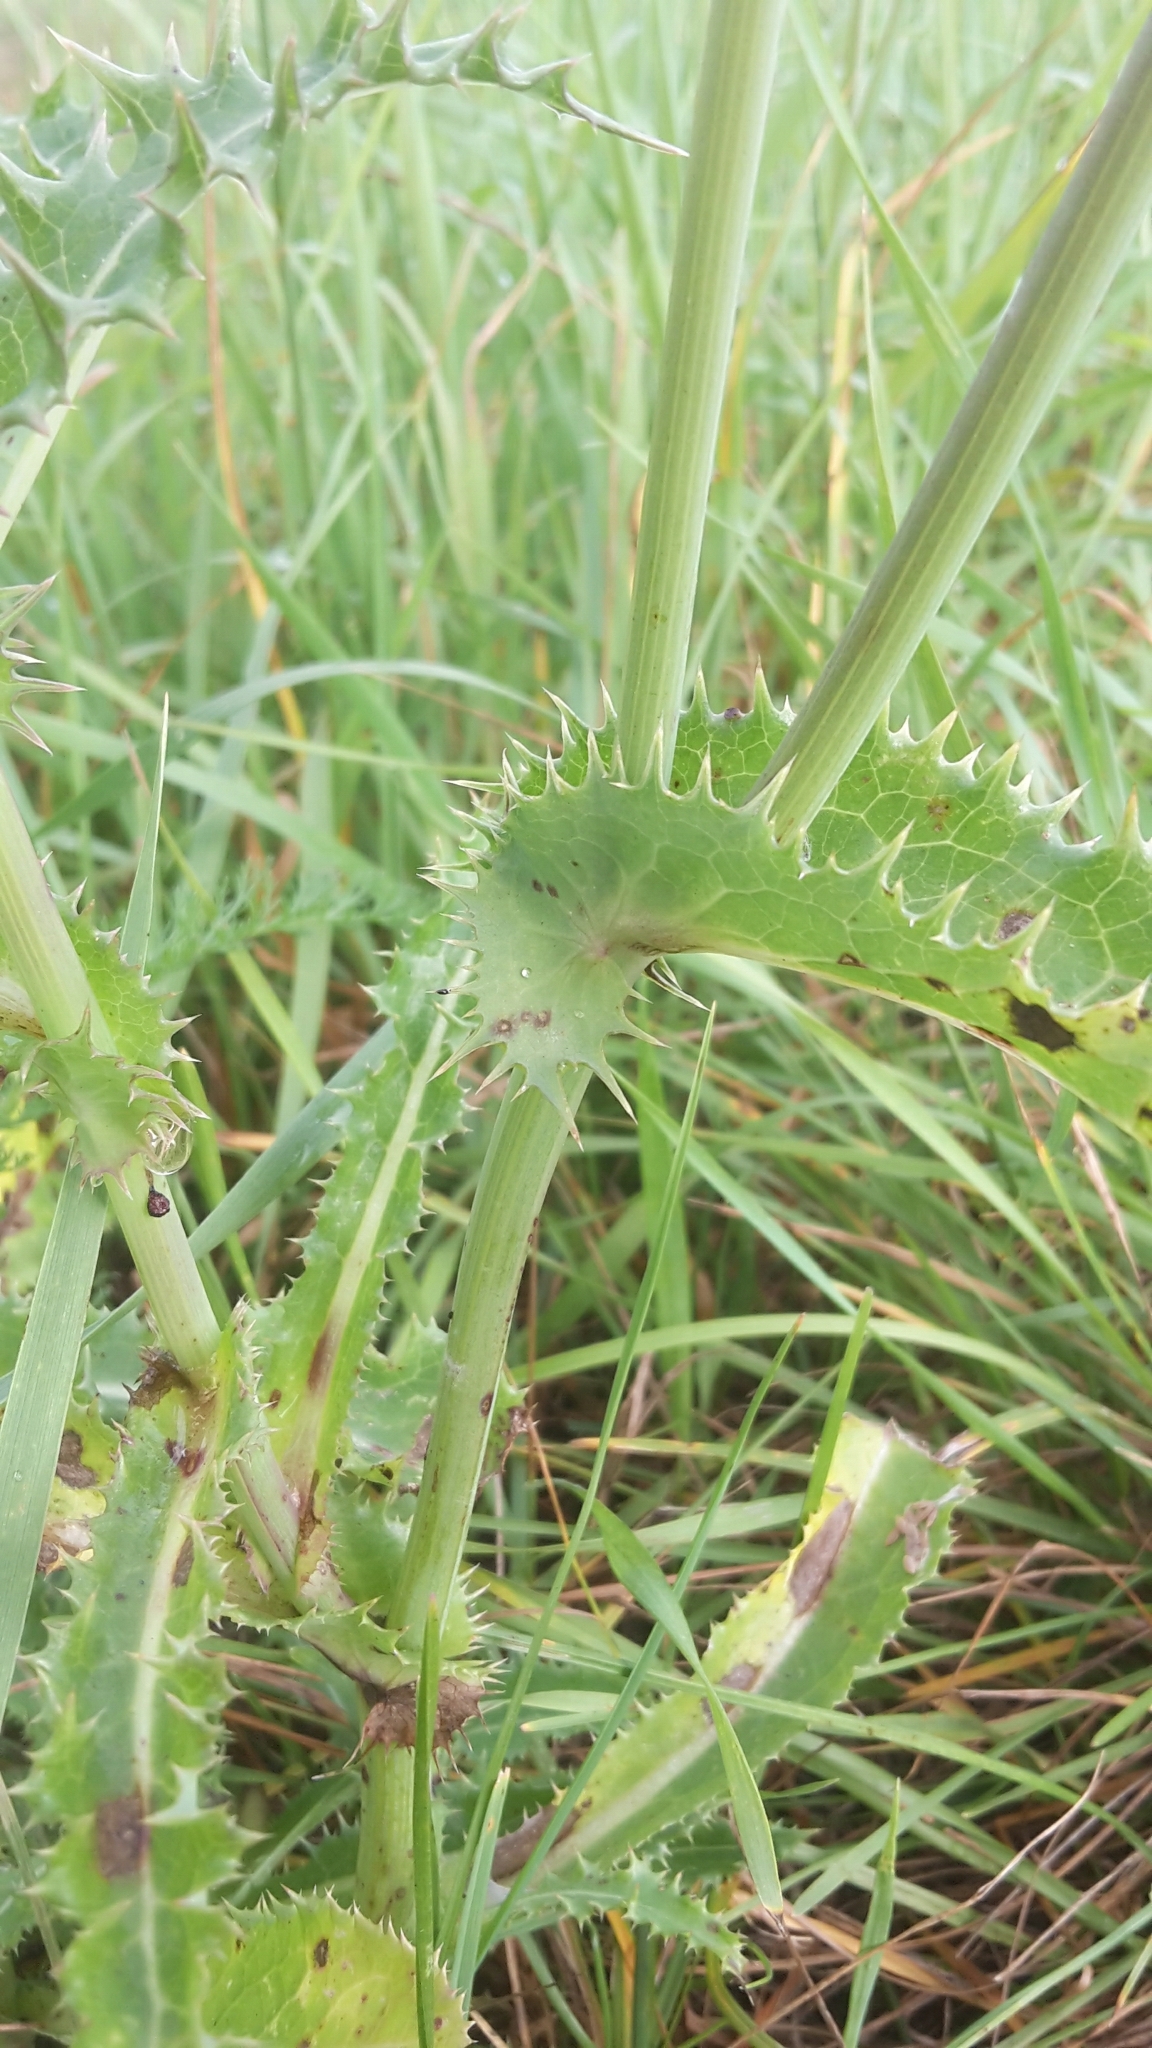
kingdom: Plantae
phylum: Tracheophyta
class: Magnoliopsida
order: Asterales
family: Asteraceae
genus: Sonchus
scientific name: Sonchus asper
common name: Prickly sow-thistle
